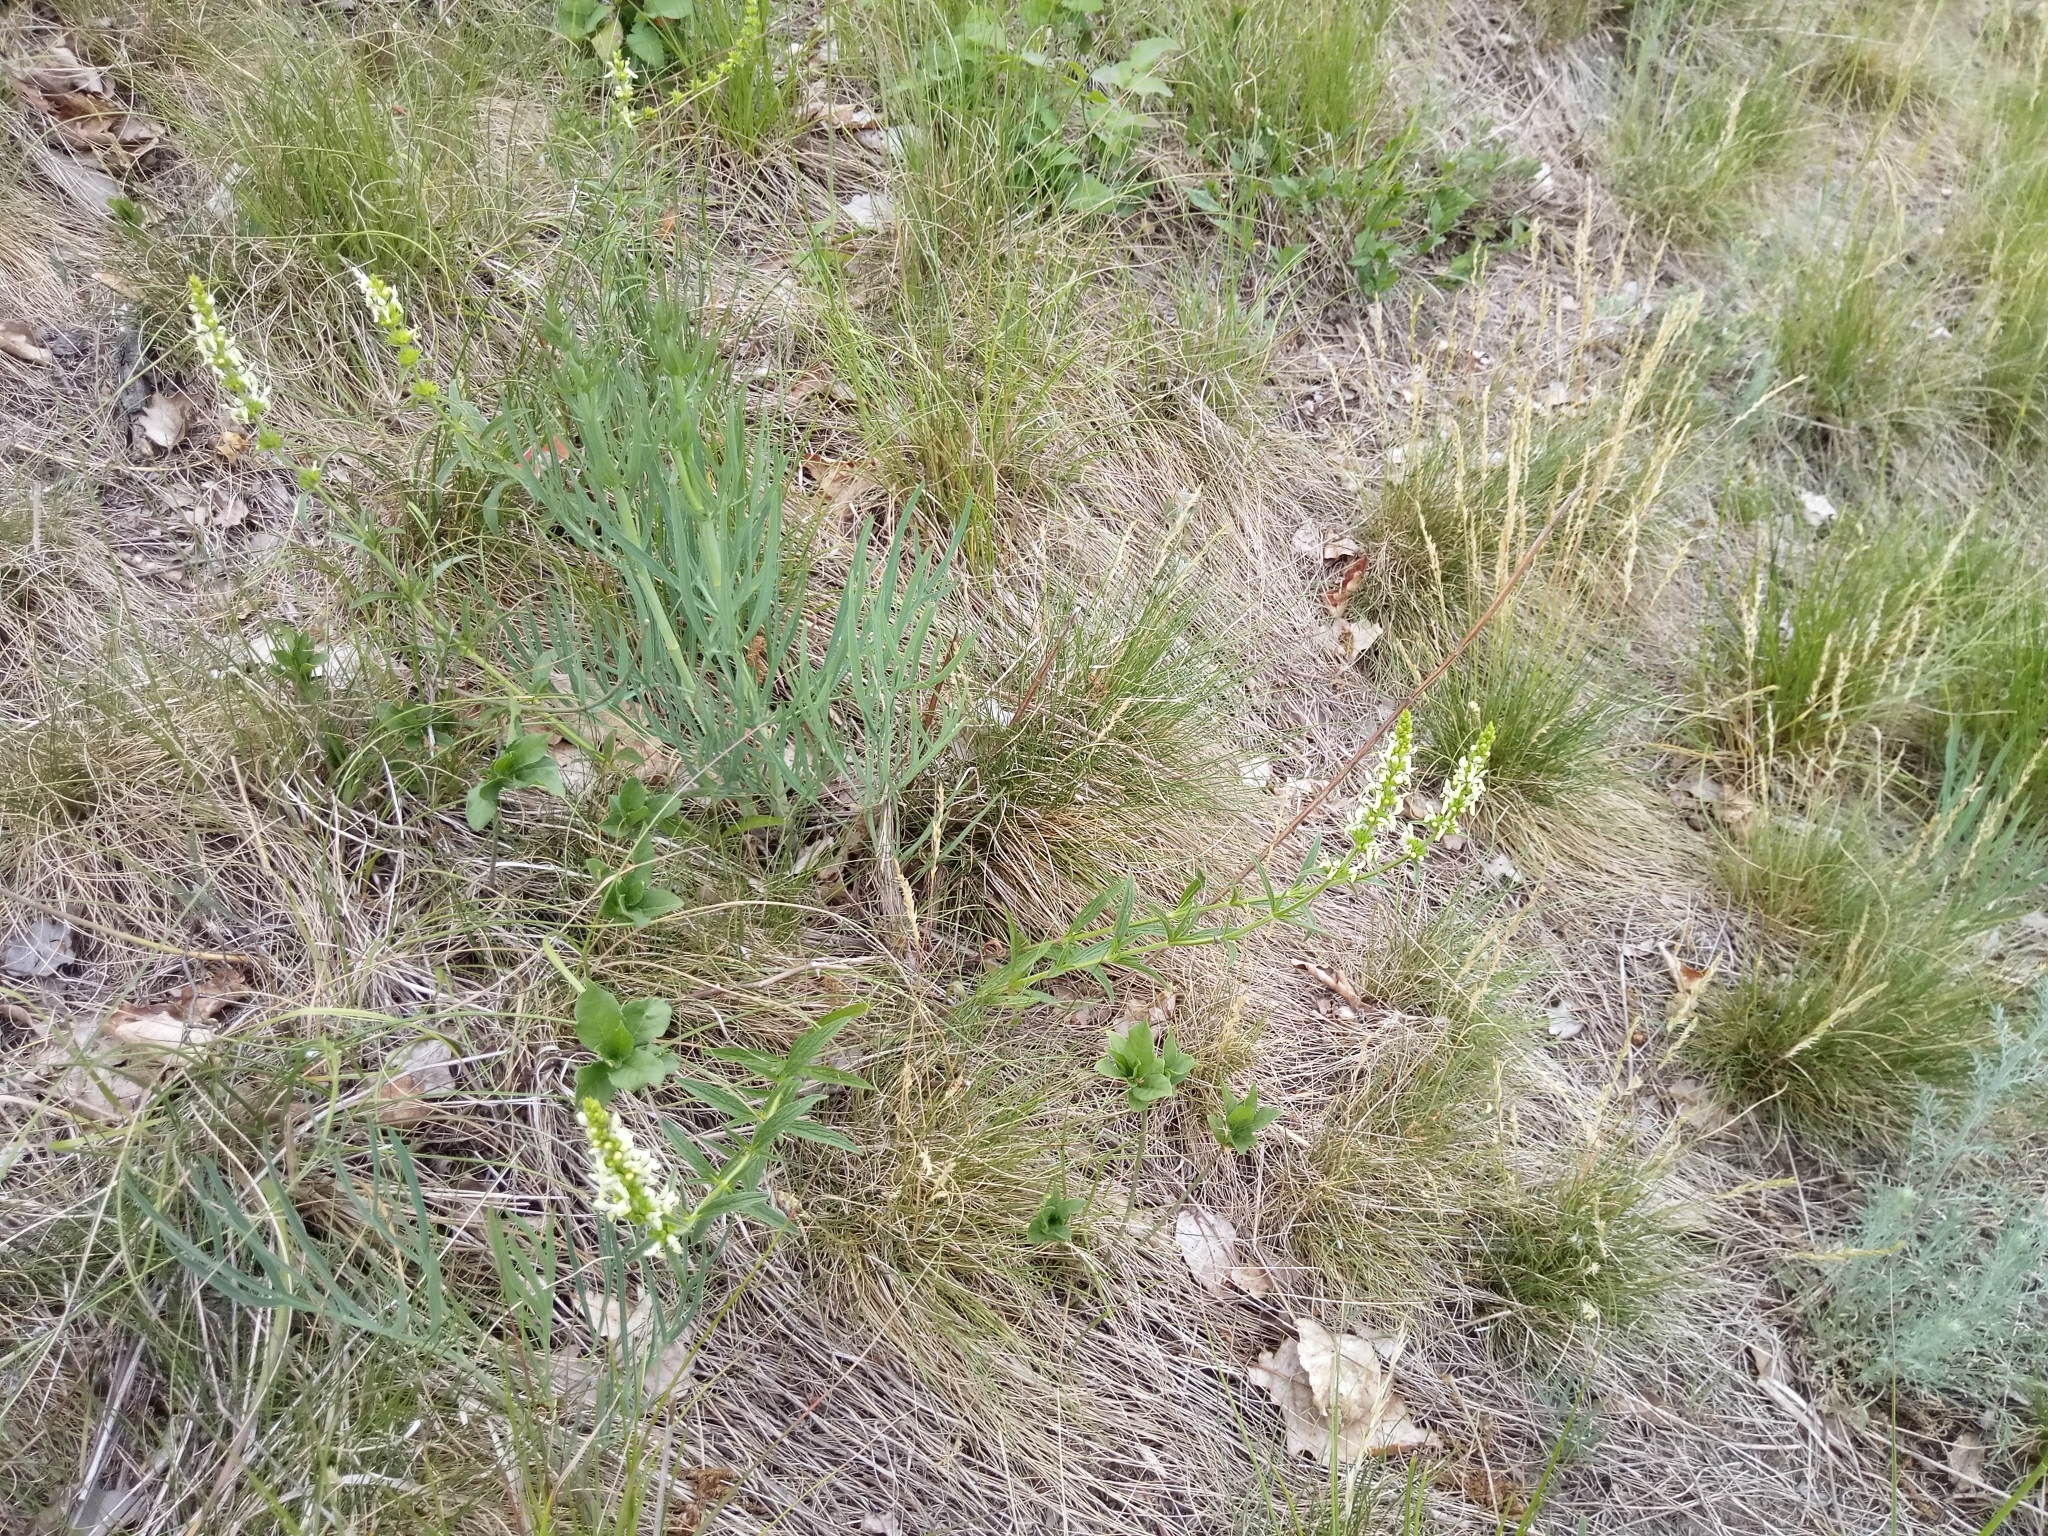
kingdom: Plantae
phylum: Tracheophyta
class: Magnoliopsida
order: Lamiales
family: Lamiaceae
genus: Stachys
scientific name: Stachys recta
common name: Perennial yellow-woundwort
